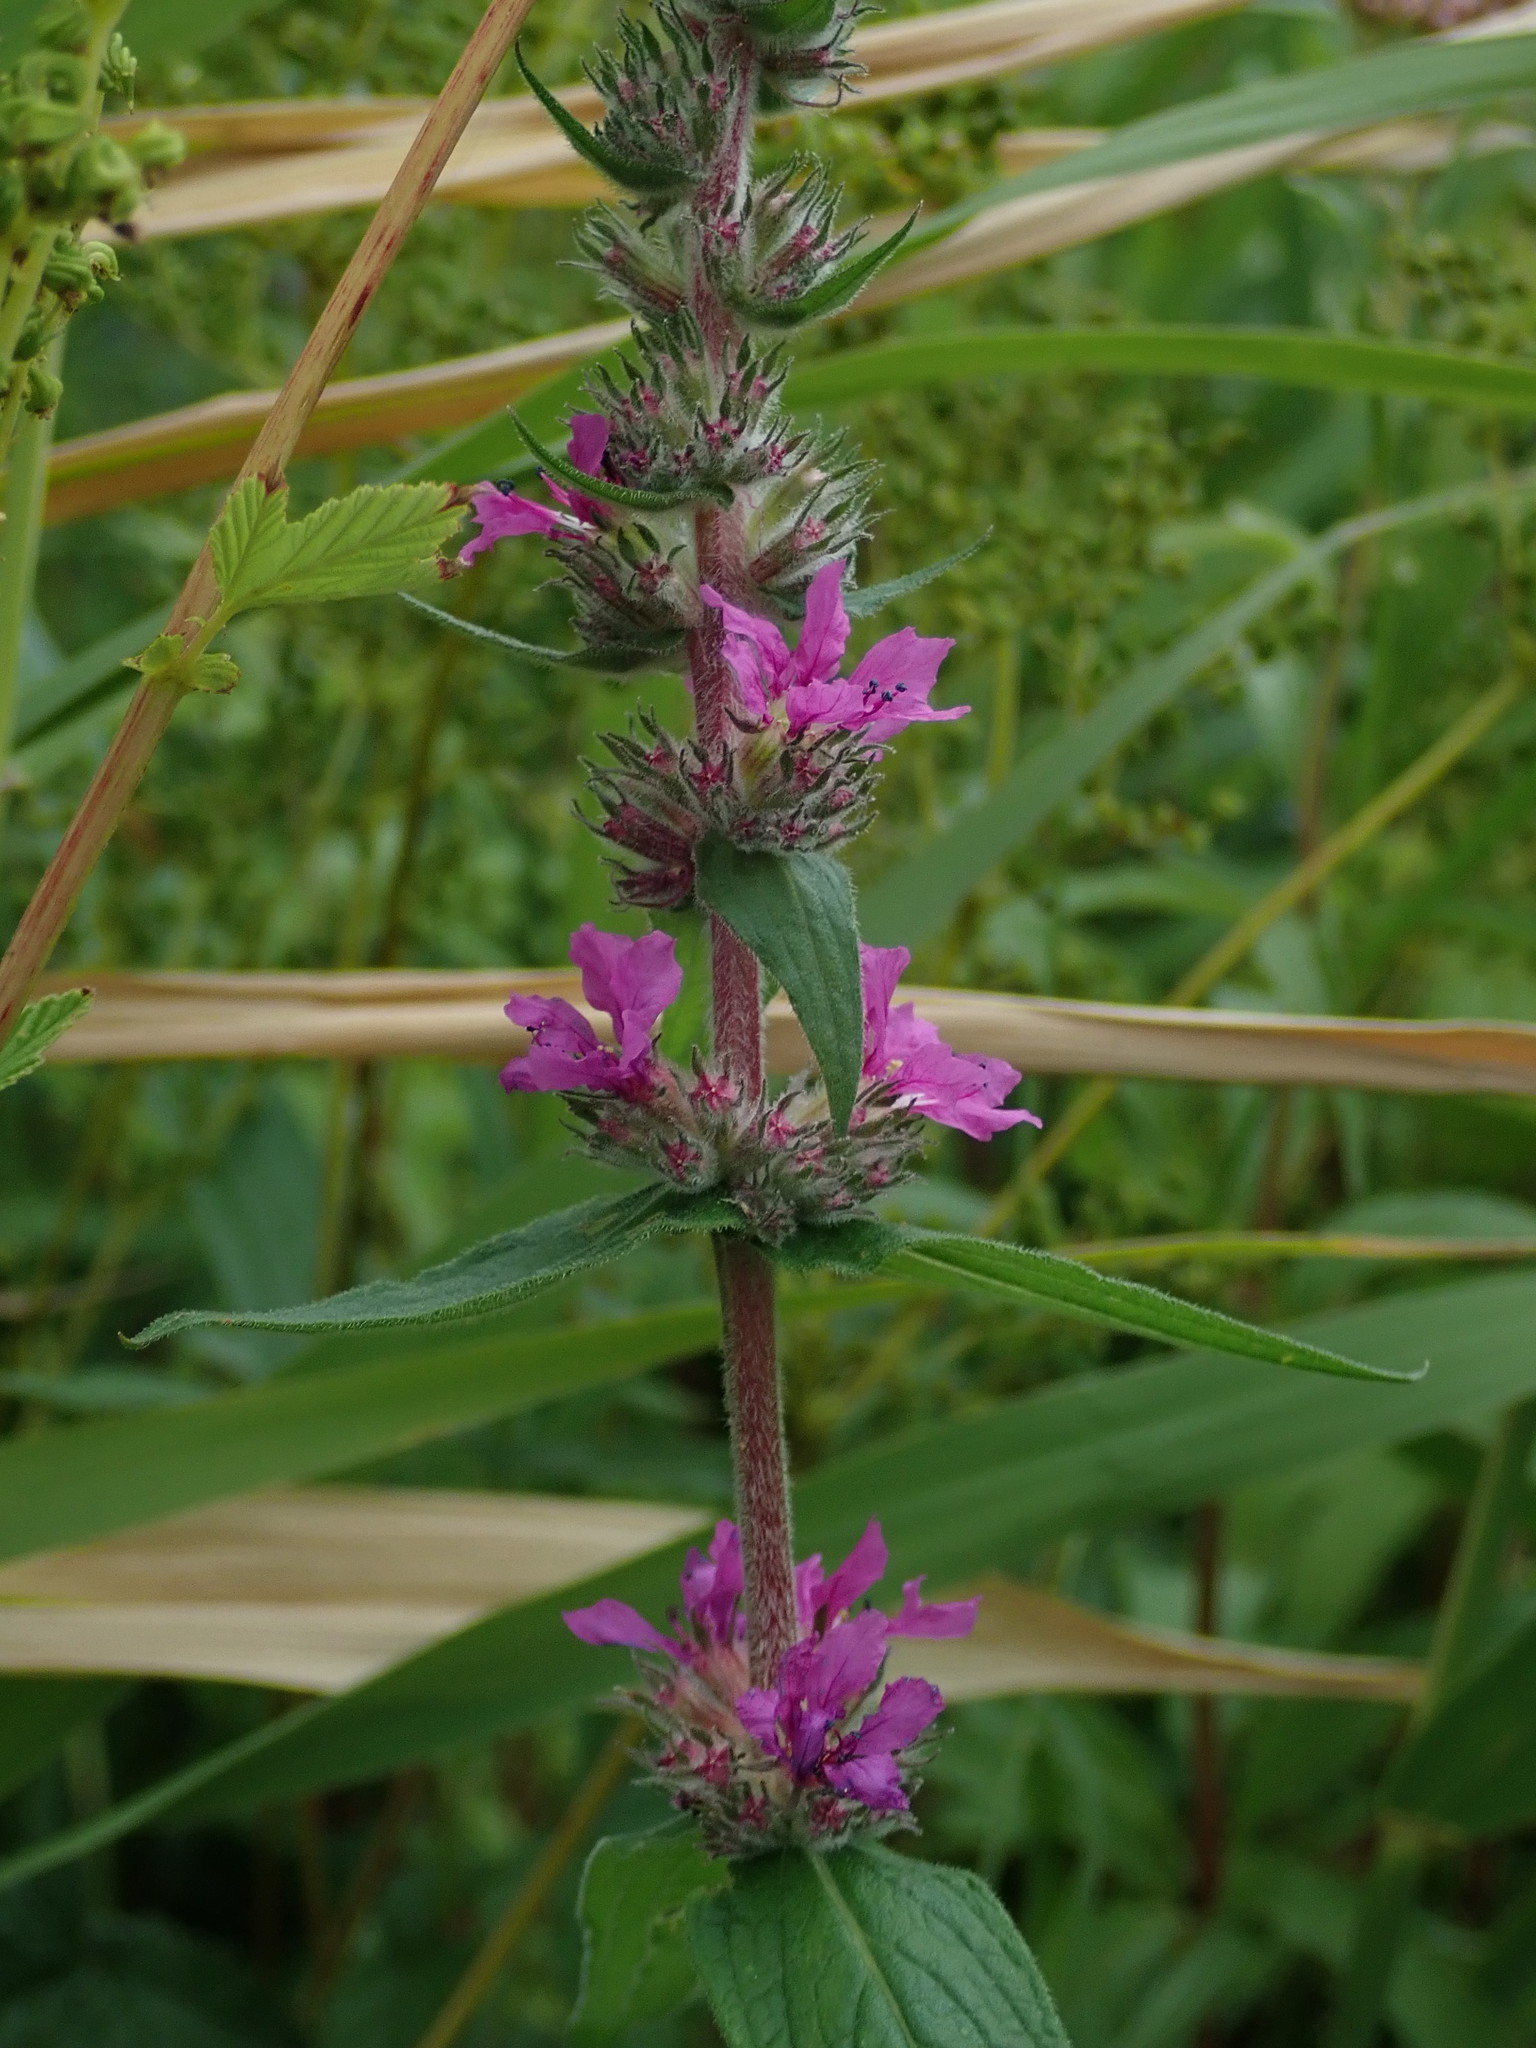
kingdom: Plantae
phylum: Tracheophyta
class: Magnoliopsida
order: Myrtales
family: Lythraceae
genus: Lythrum
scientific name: Lythrum salicaria
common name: Purple loosestrife
